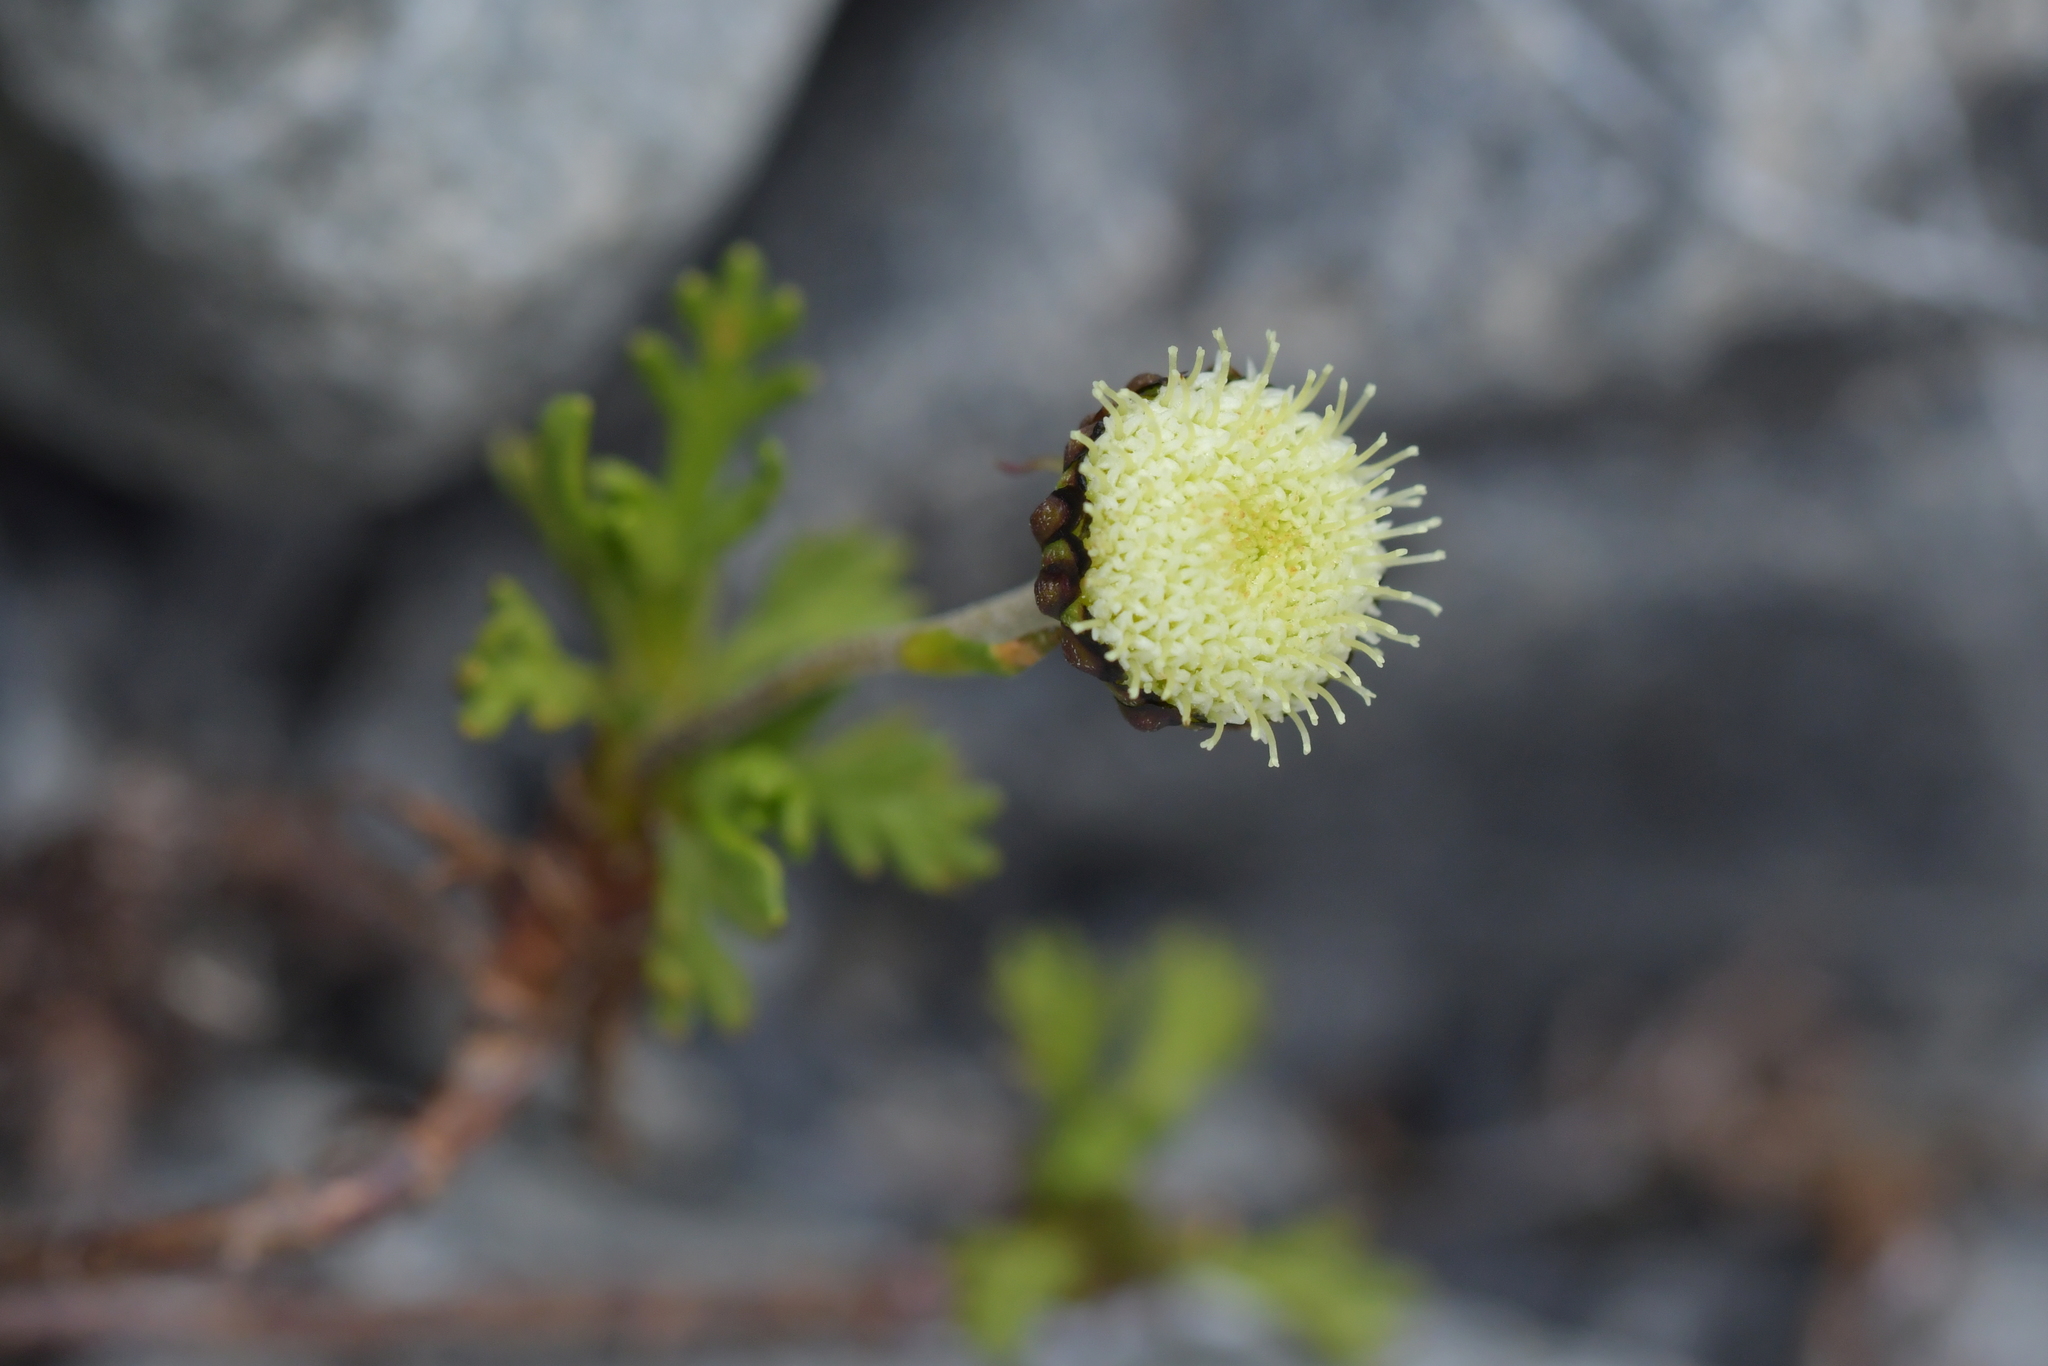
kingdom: Plantae
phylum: Tracheophyta
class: Magnoliopsida
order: Asterales
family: Asteraceae
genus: Leptinella
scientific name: Leptinella pyrethrifolia
